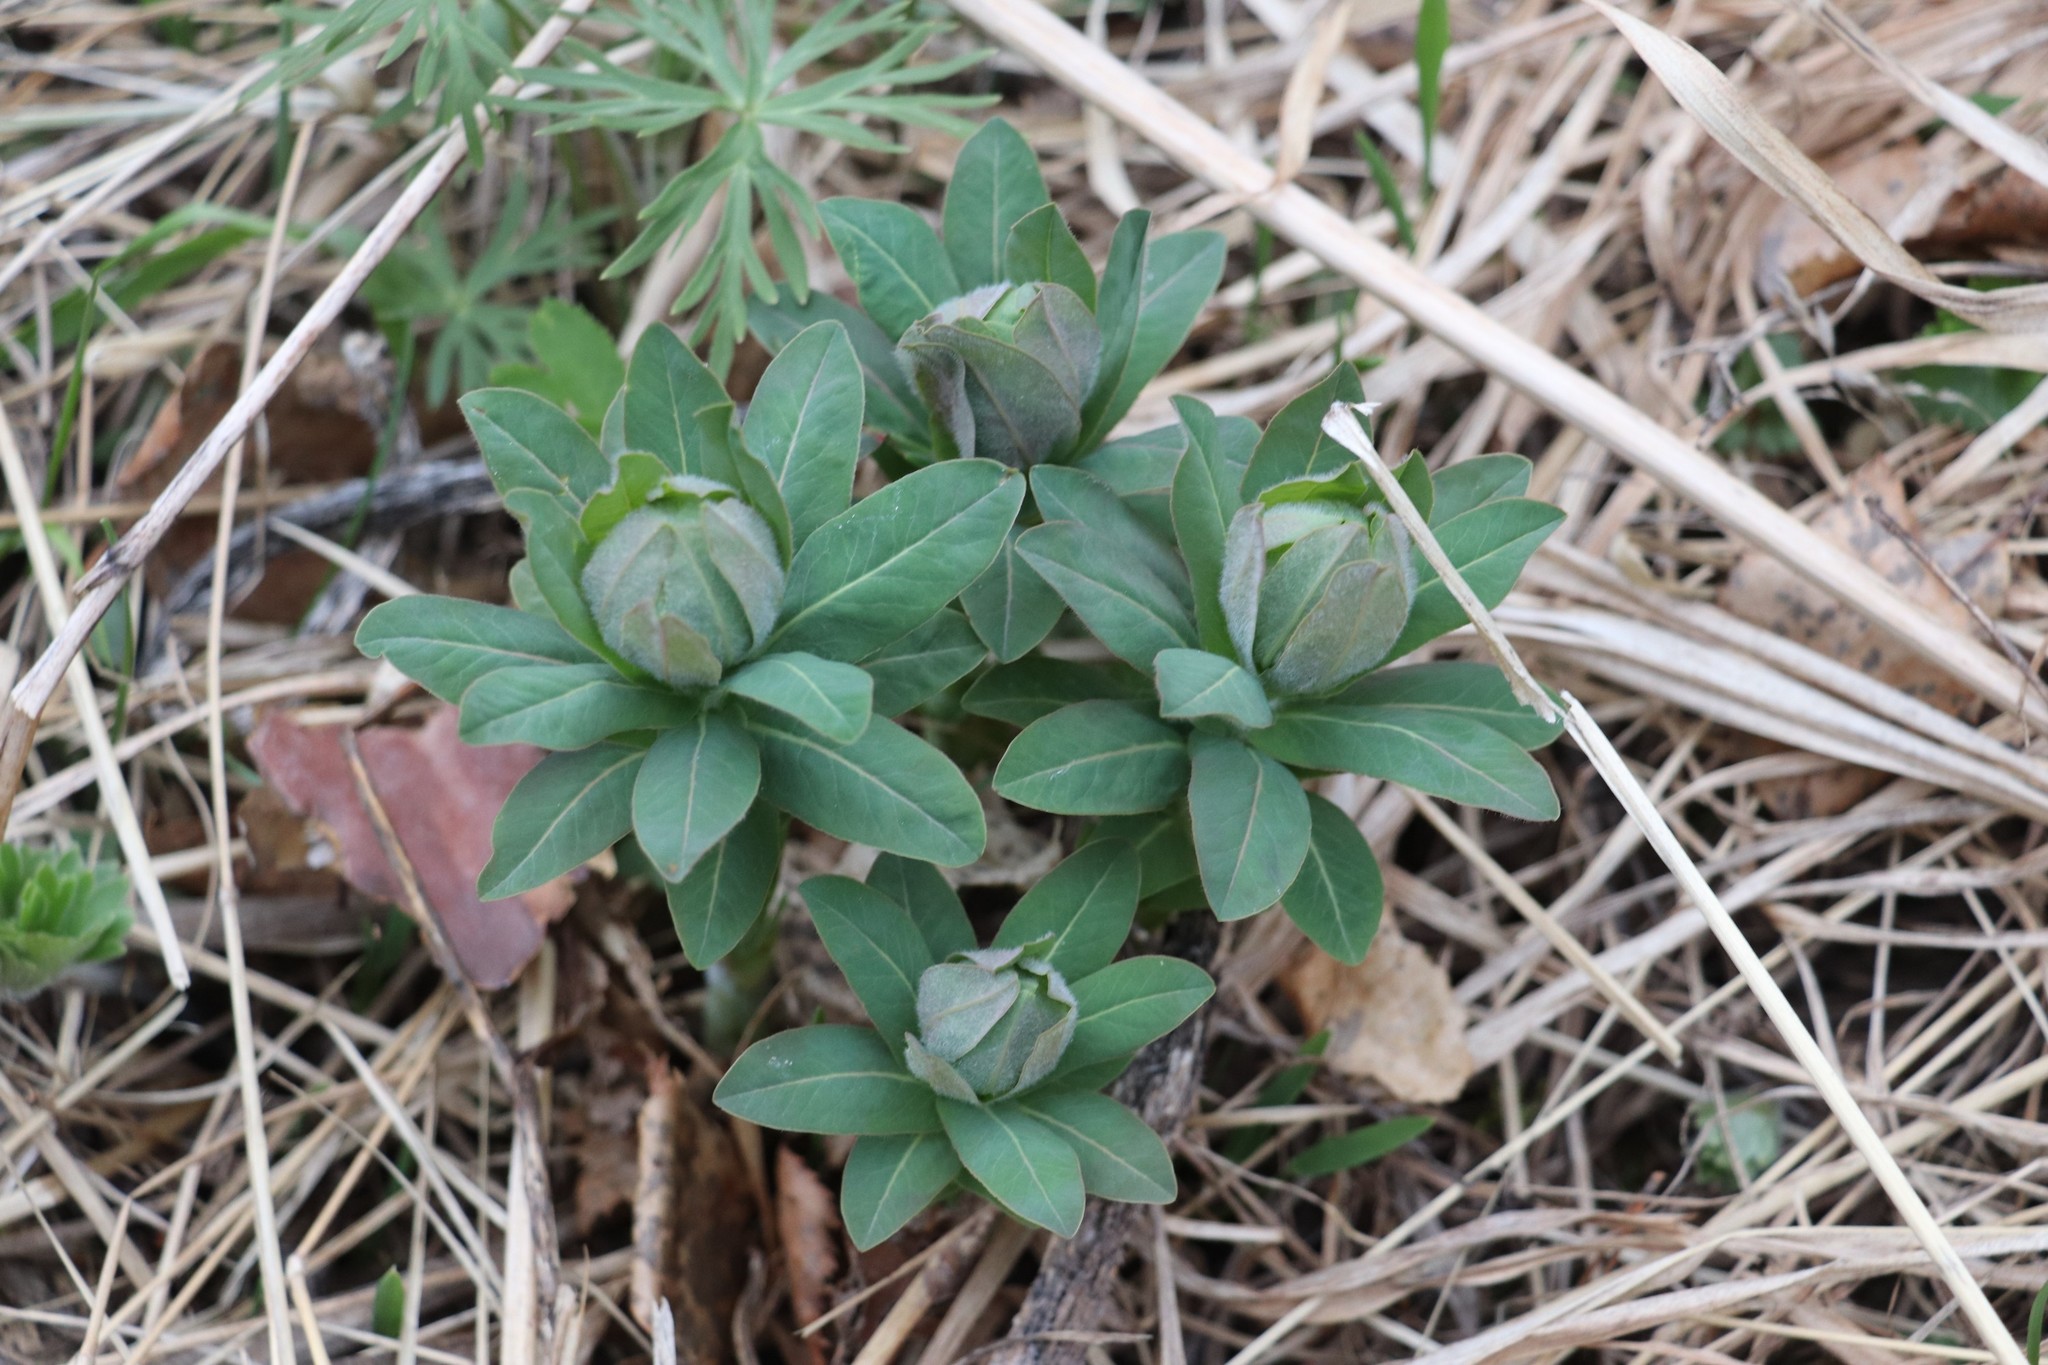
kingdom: Plantae
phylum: Tracheophyta
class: Magnoliopsida
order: Malpighiales
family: Euphorbiaceae
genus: Euphorbia
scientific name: Euphorbia pilosa
